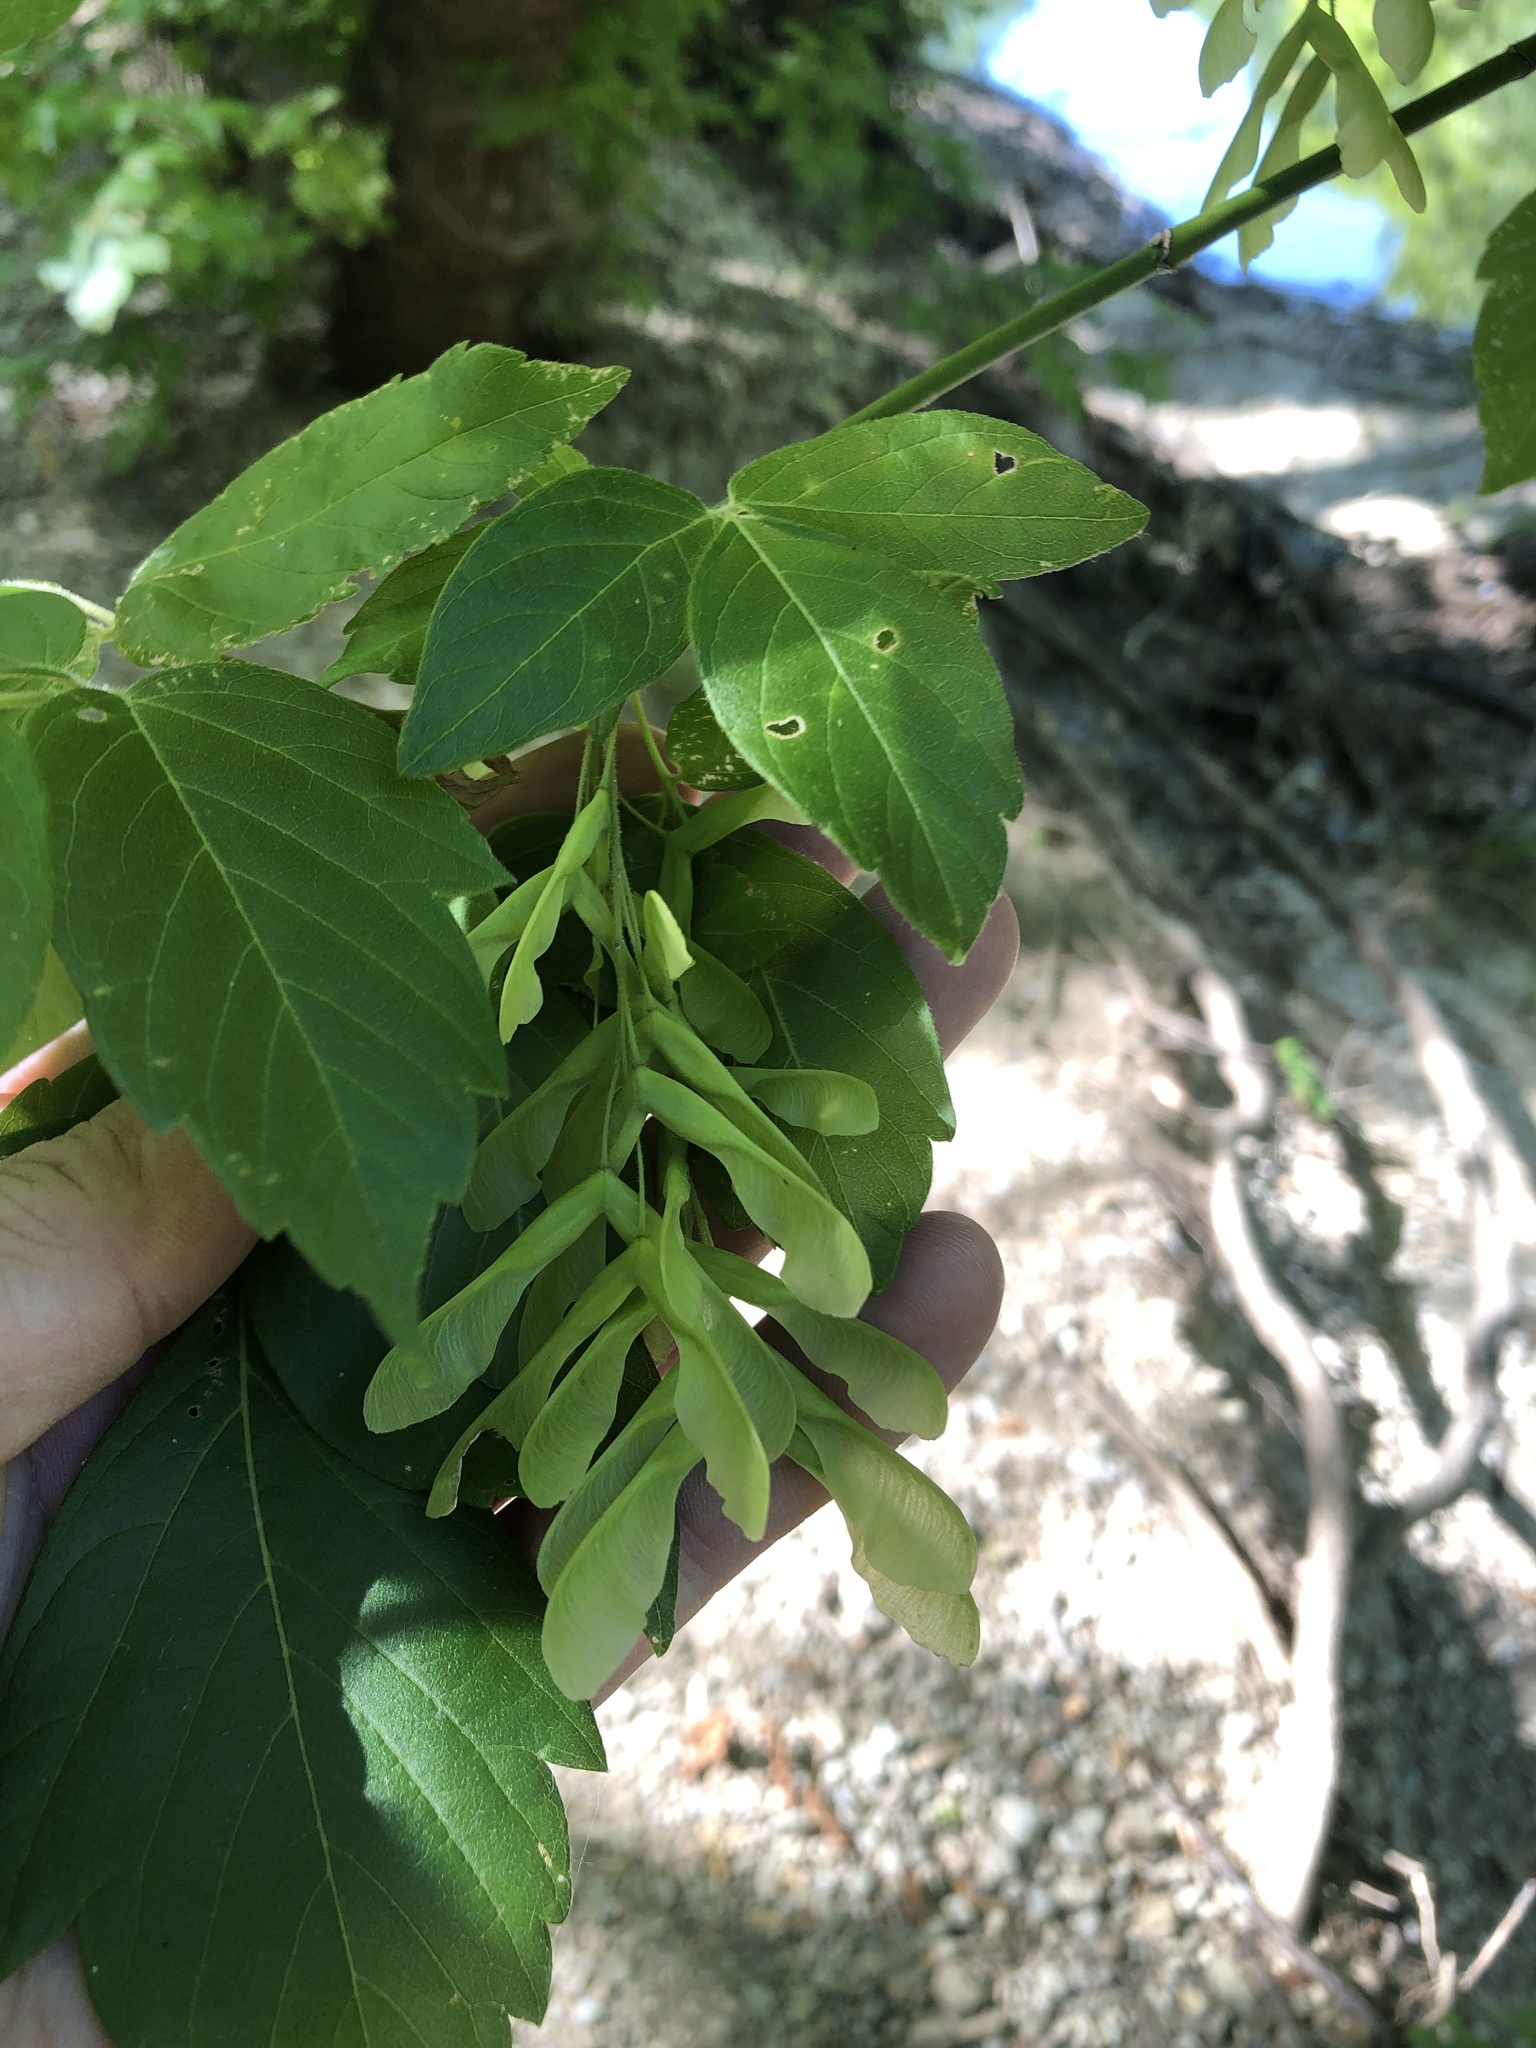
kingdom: Plantae
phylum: Tracheophyta
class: Magnoliopsida
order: Sapindales
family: Sapindaceae
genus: Acer
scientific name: Acer negundo
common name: Ashleaf maple
